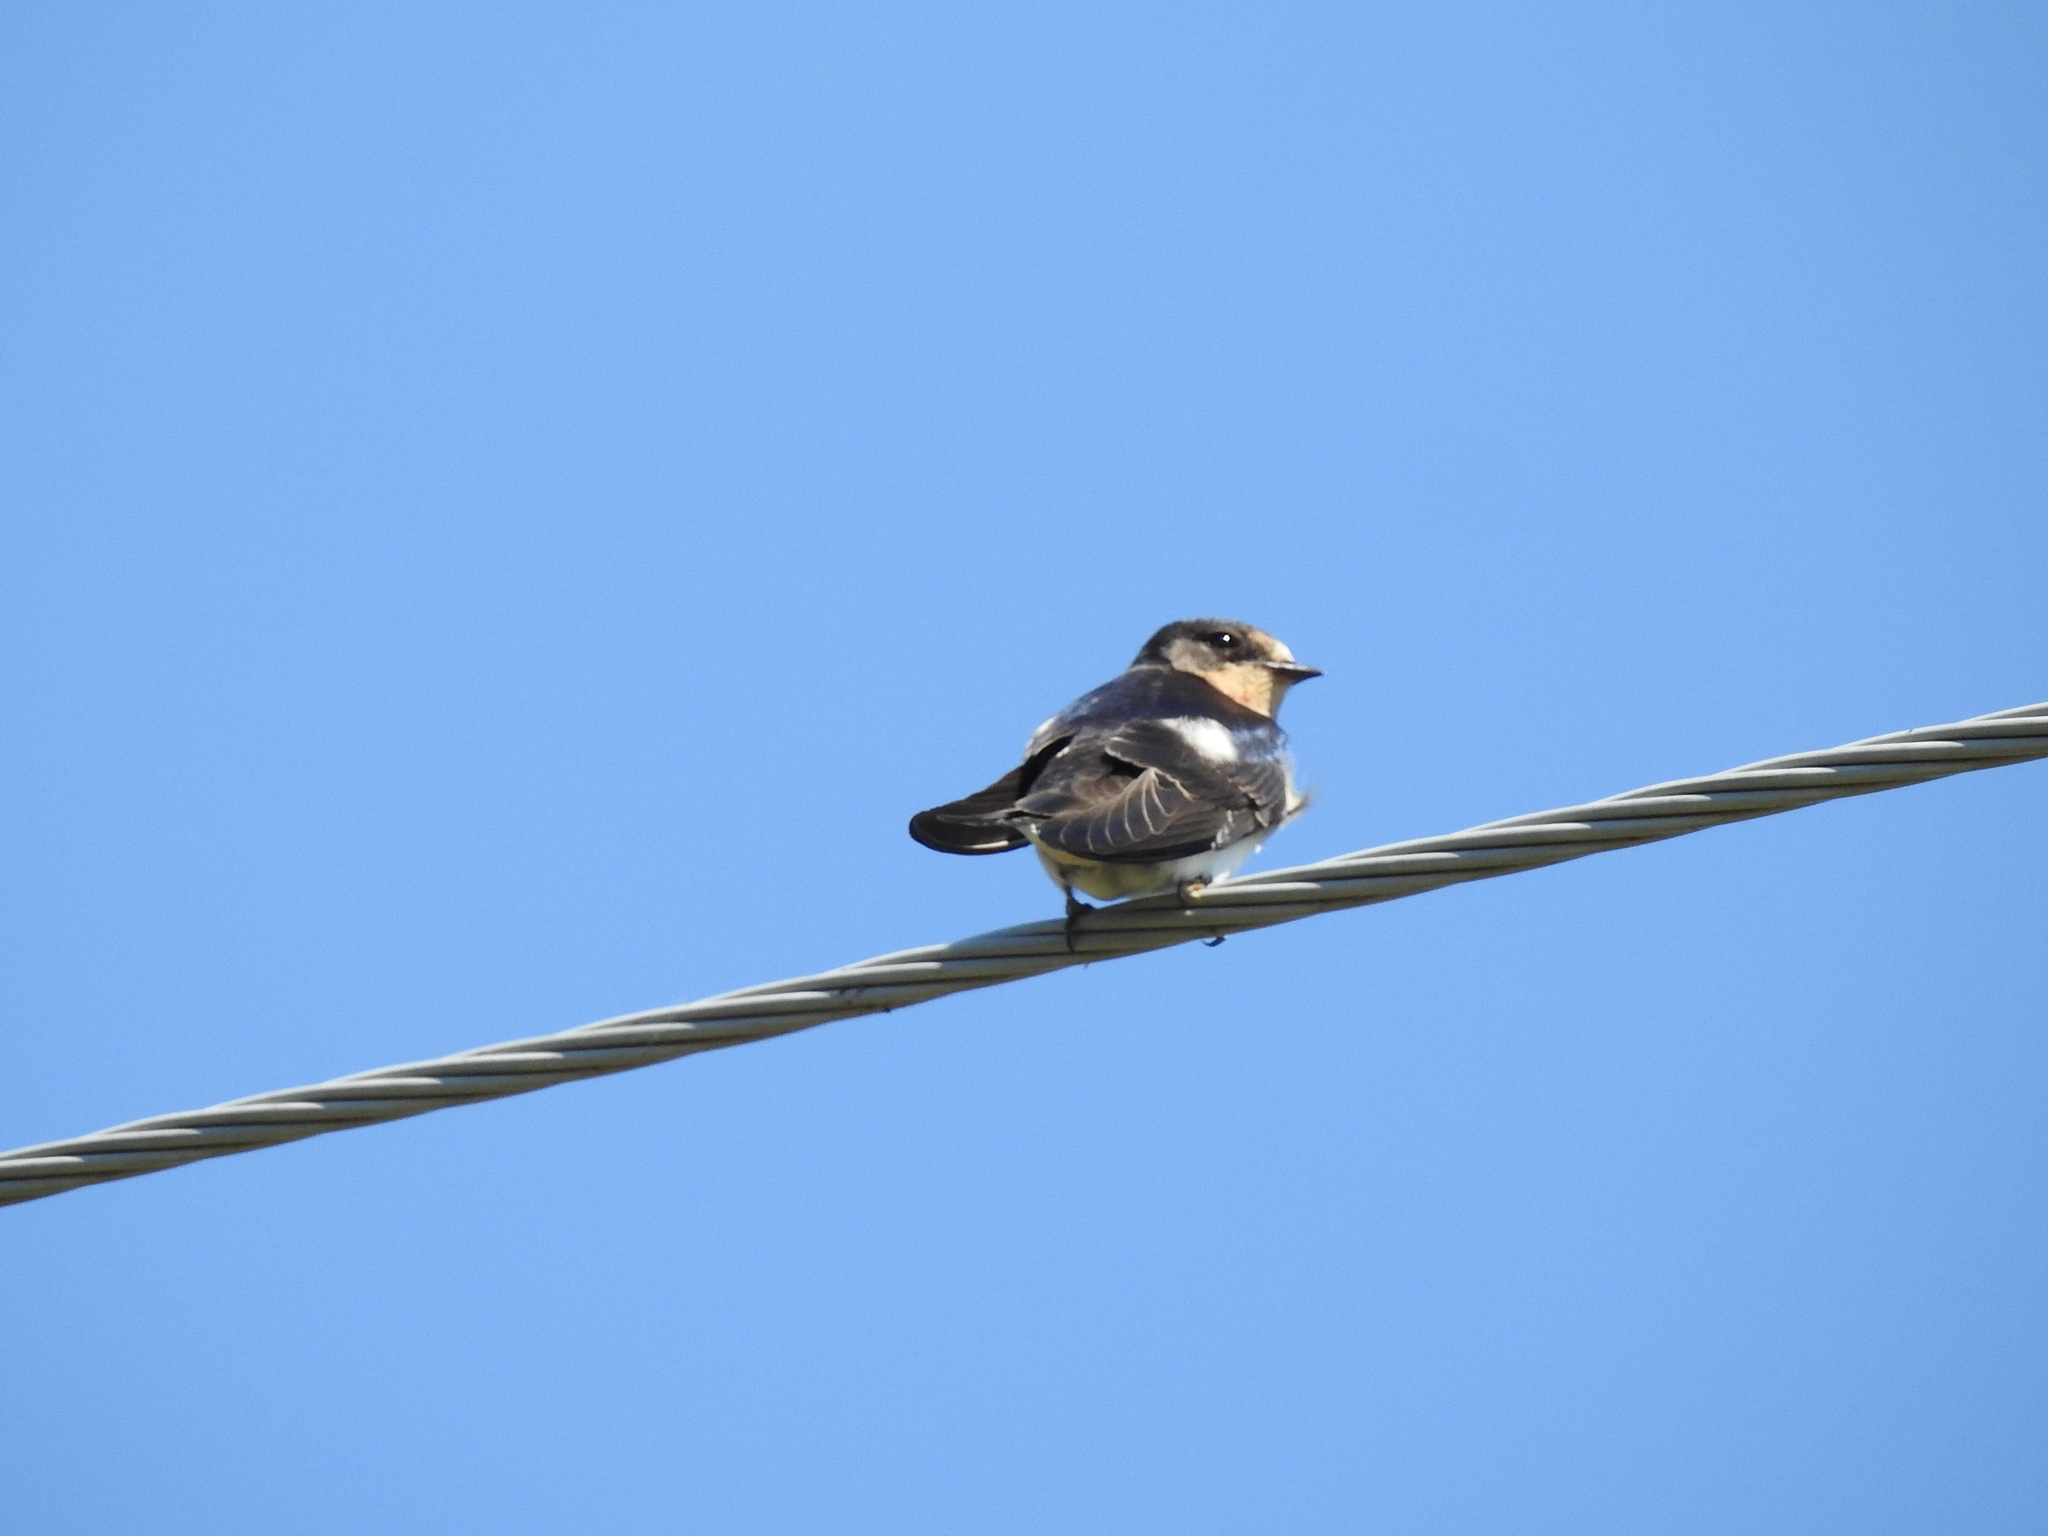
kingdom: Animalia
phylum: Chordata
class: Aves
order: Passeriformes
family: Hirundinidae
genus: Hirundo
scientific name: Hirundo rustica
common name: Barn swallow
